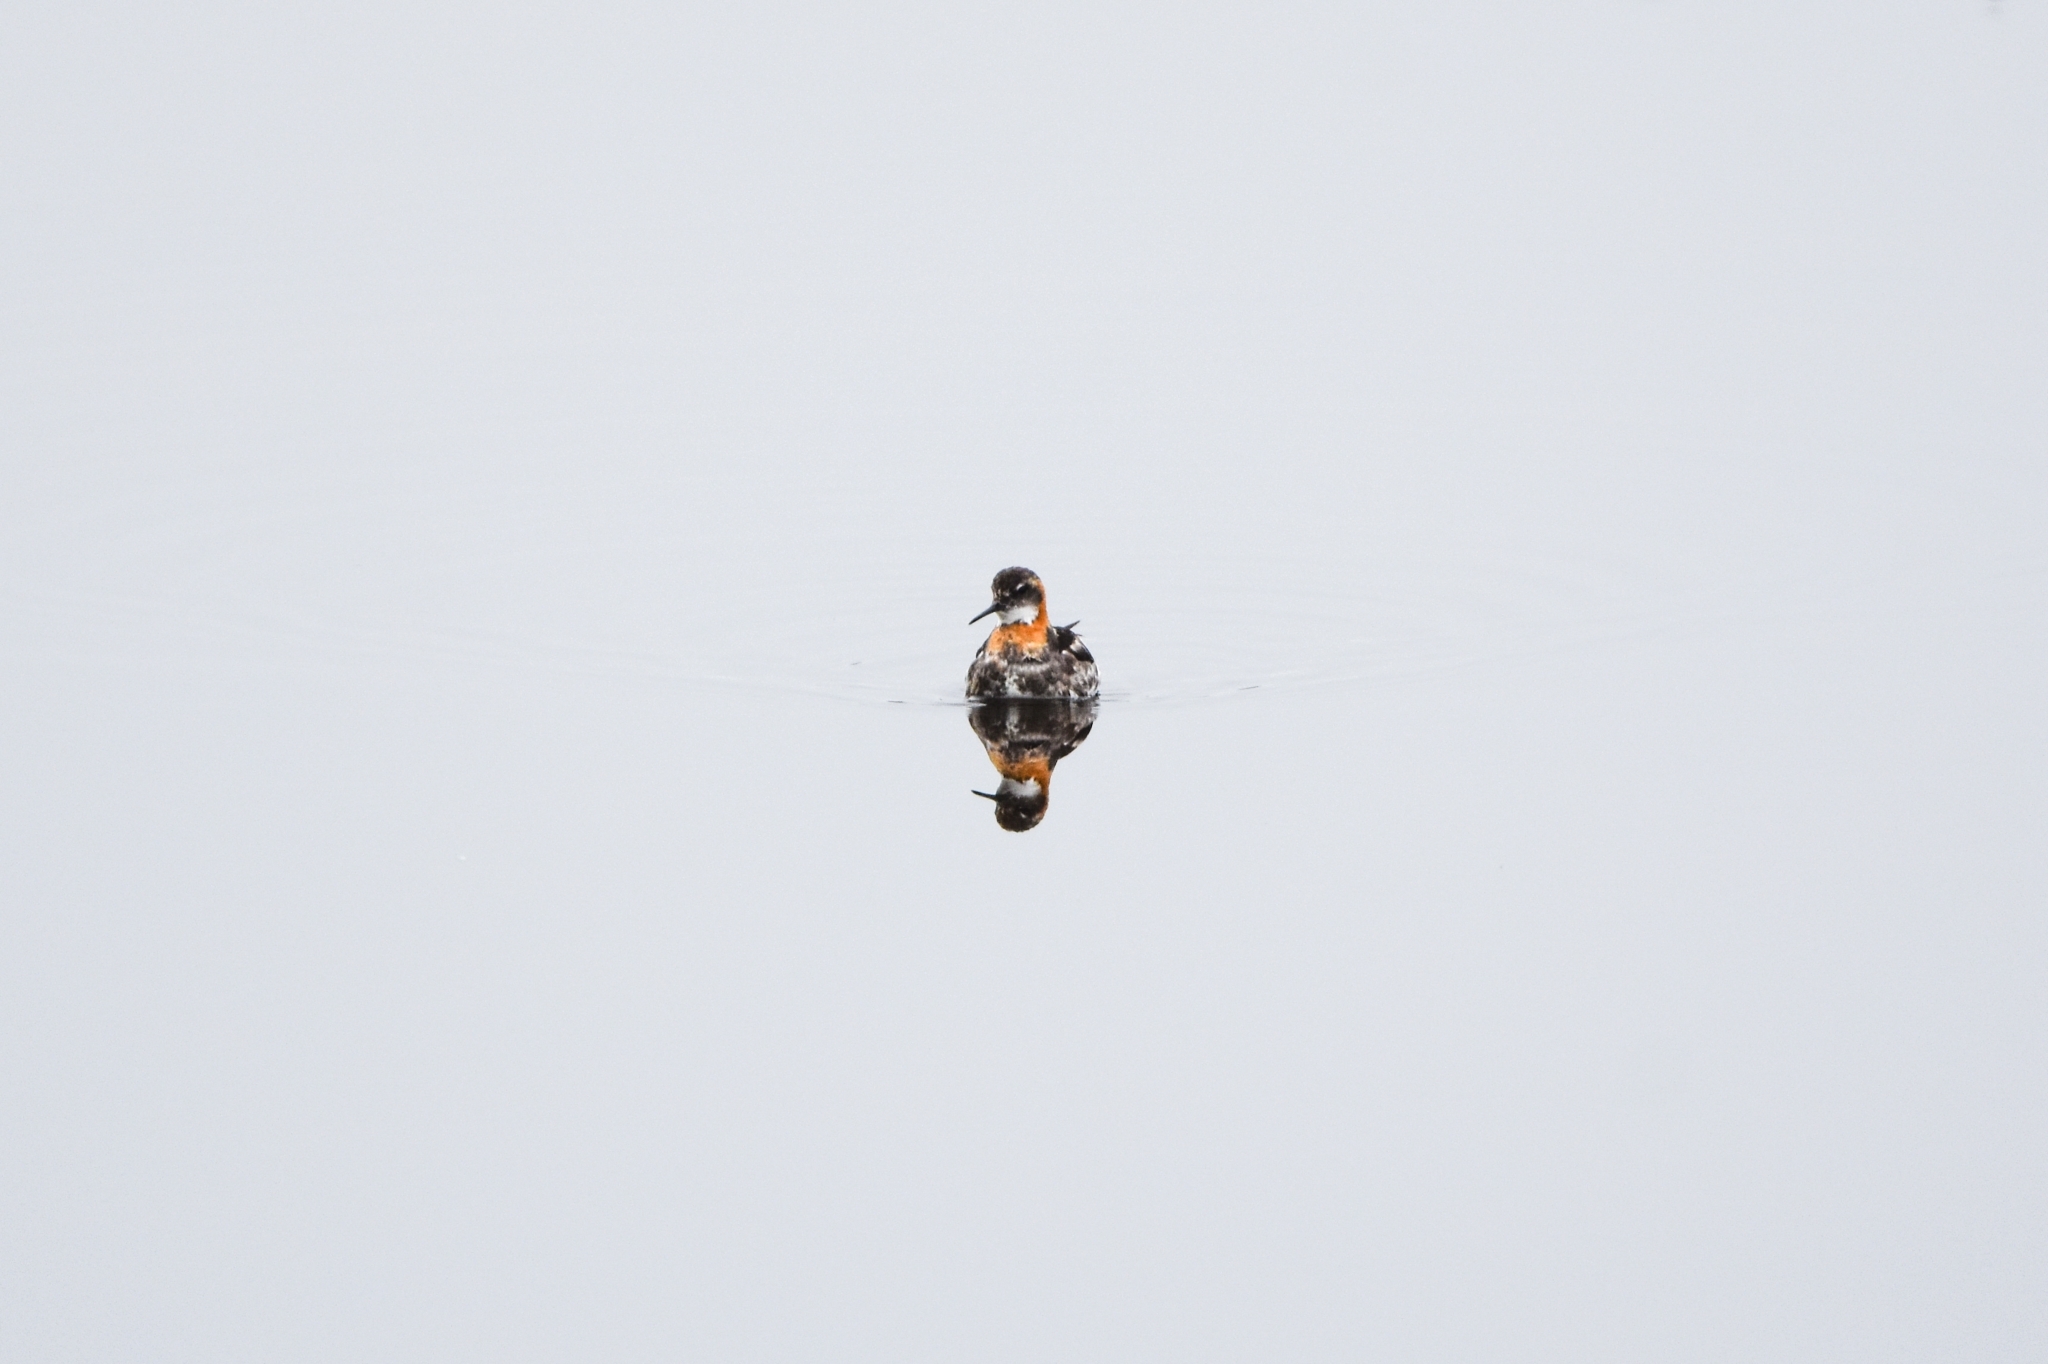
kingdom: Animalia
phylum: Chordata
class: Aves
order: Charadriiformes
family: Scolopacidae
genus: Phalaropus
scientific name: Phalaropus lobatus
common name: Red-necked phalarope
